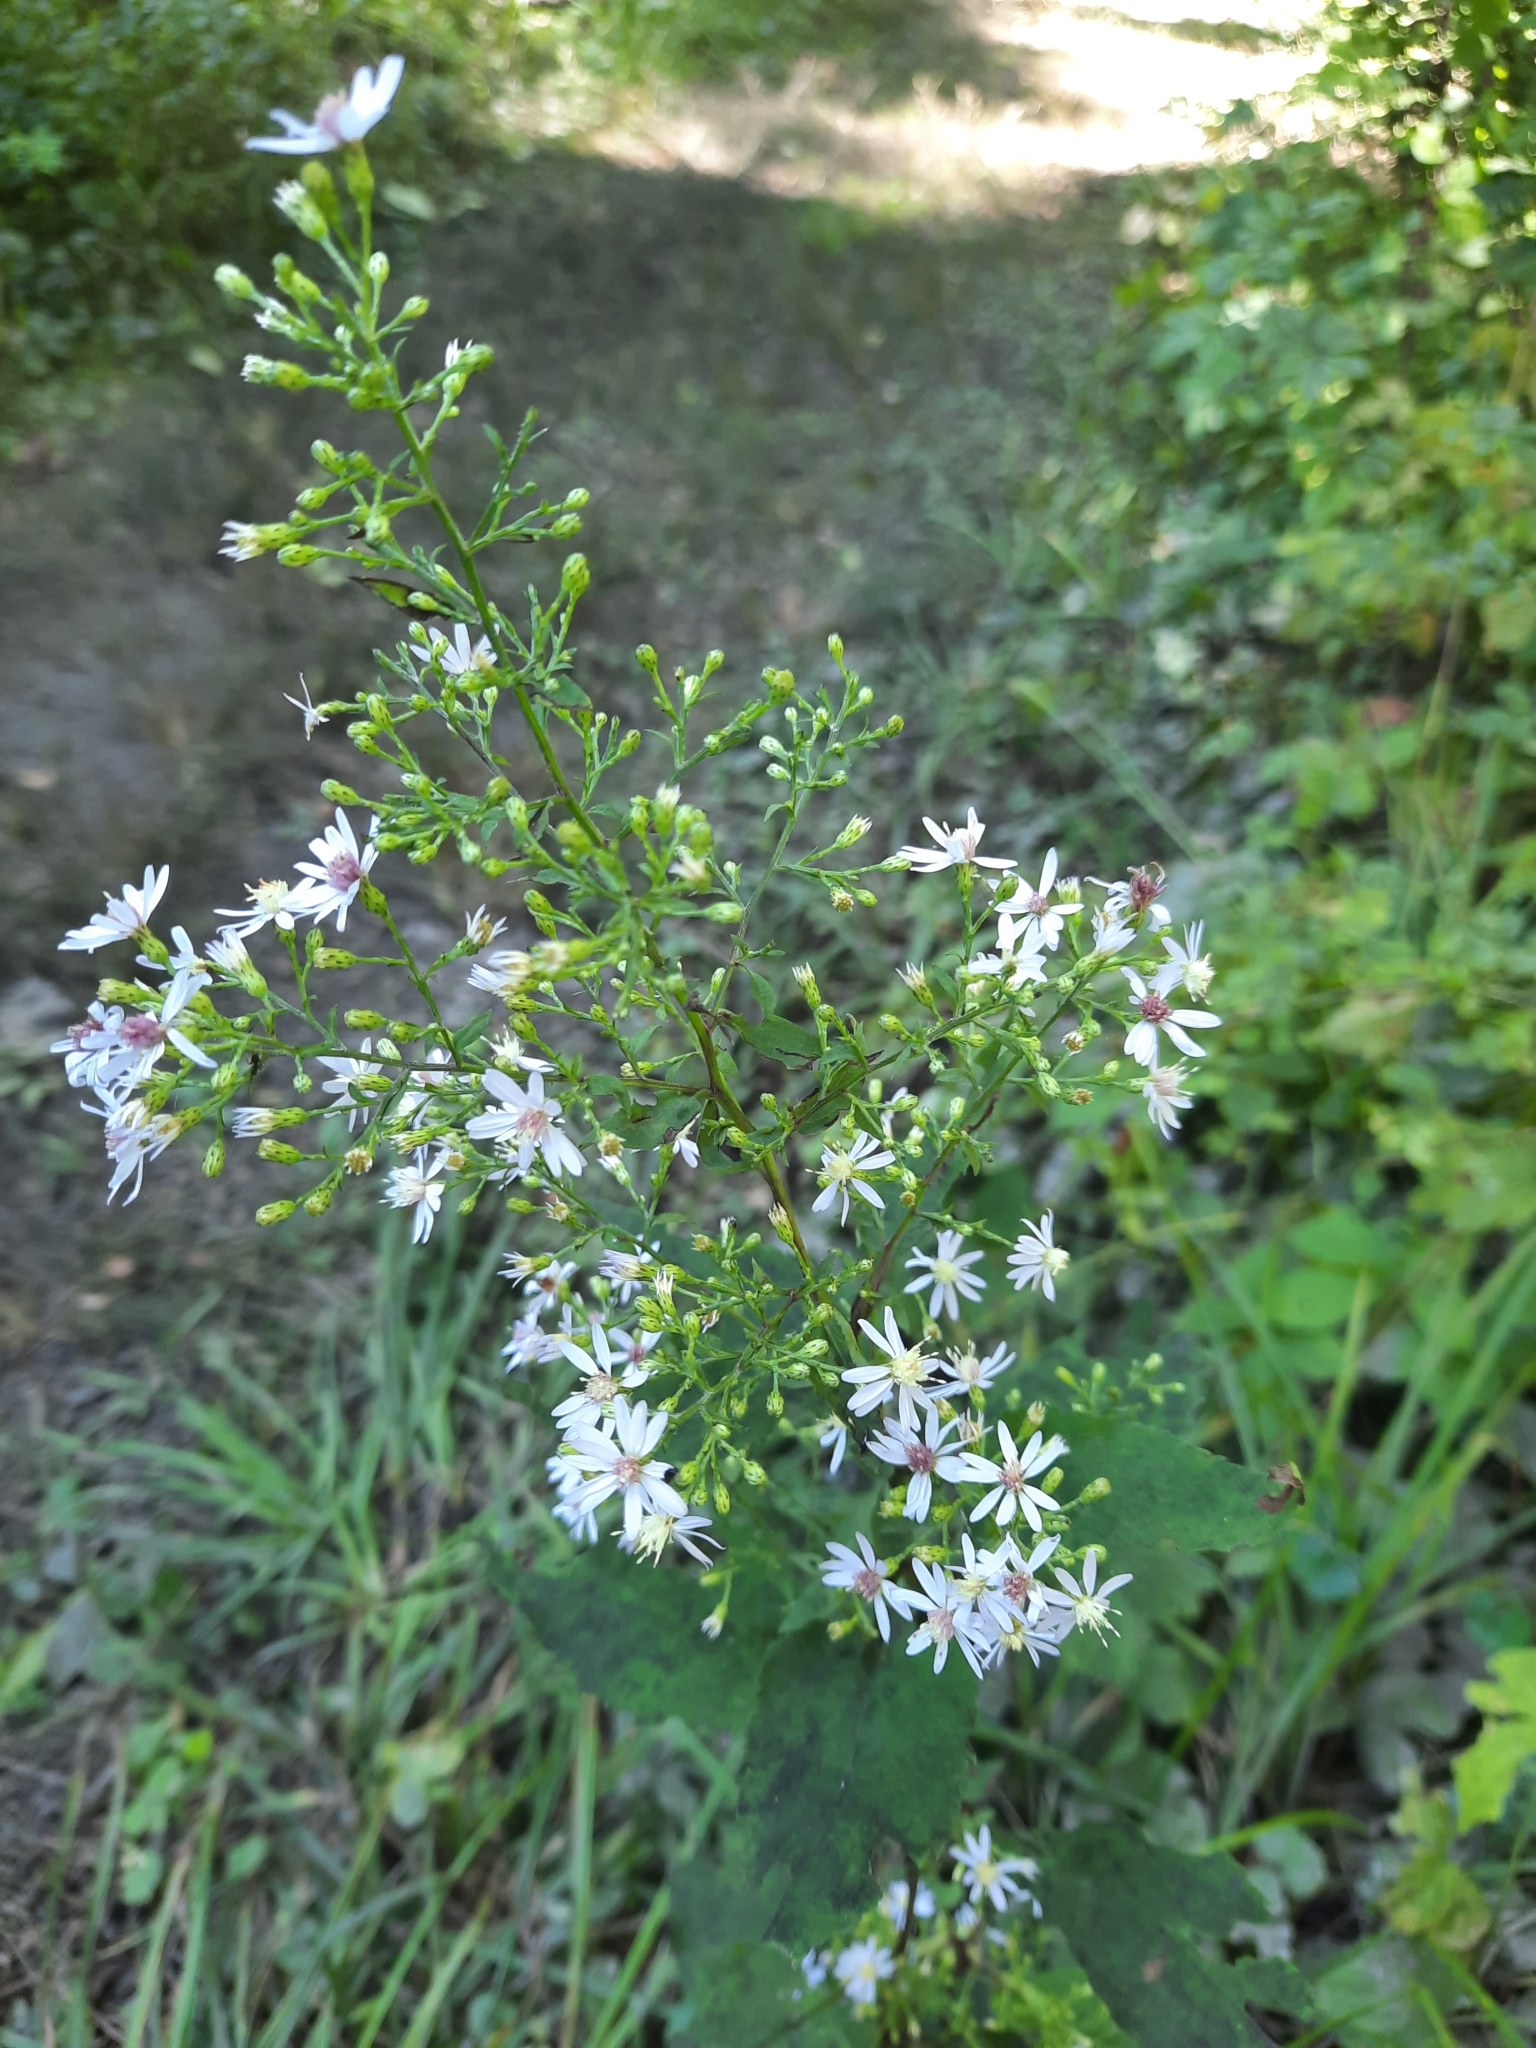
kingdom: Plantae
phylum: Tracheophyta
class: Magnoliopsida
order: Asterales
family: Asteraceae
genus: Symphyotrichum
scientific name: Symphyotrichum cordifolium
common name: Beeweed
